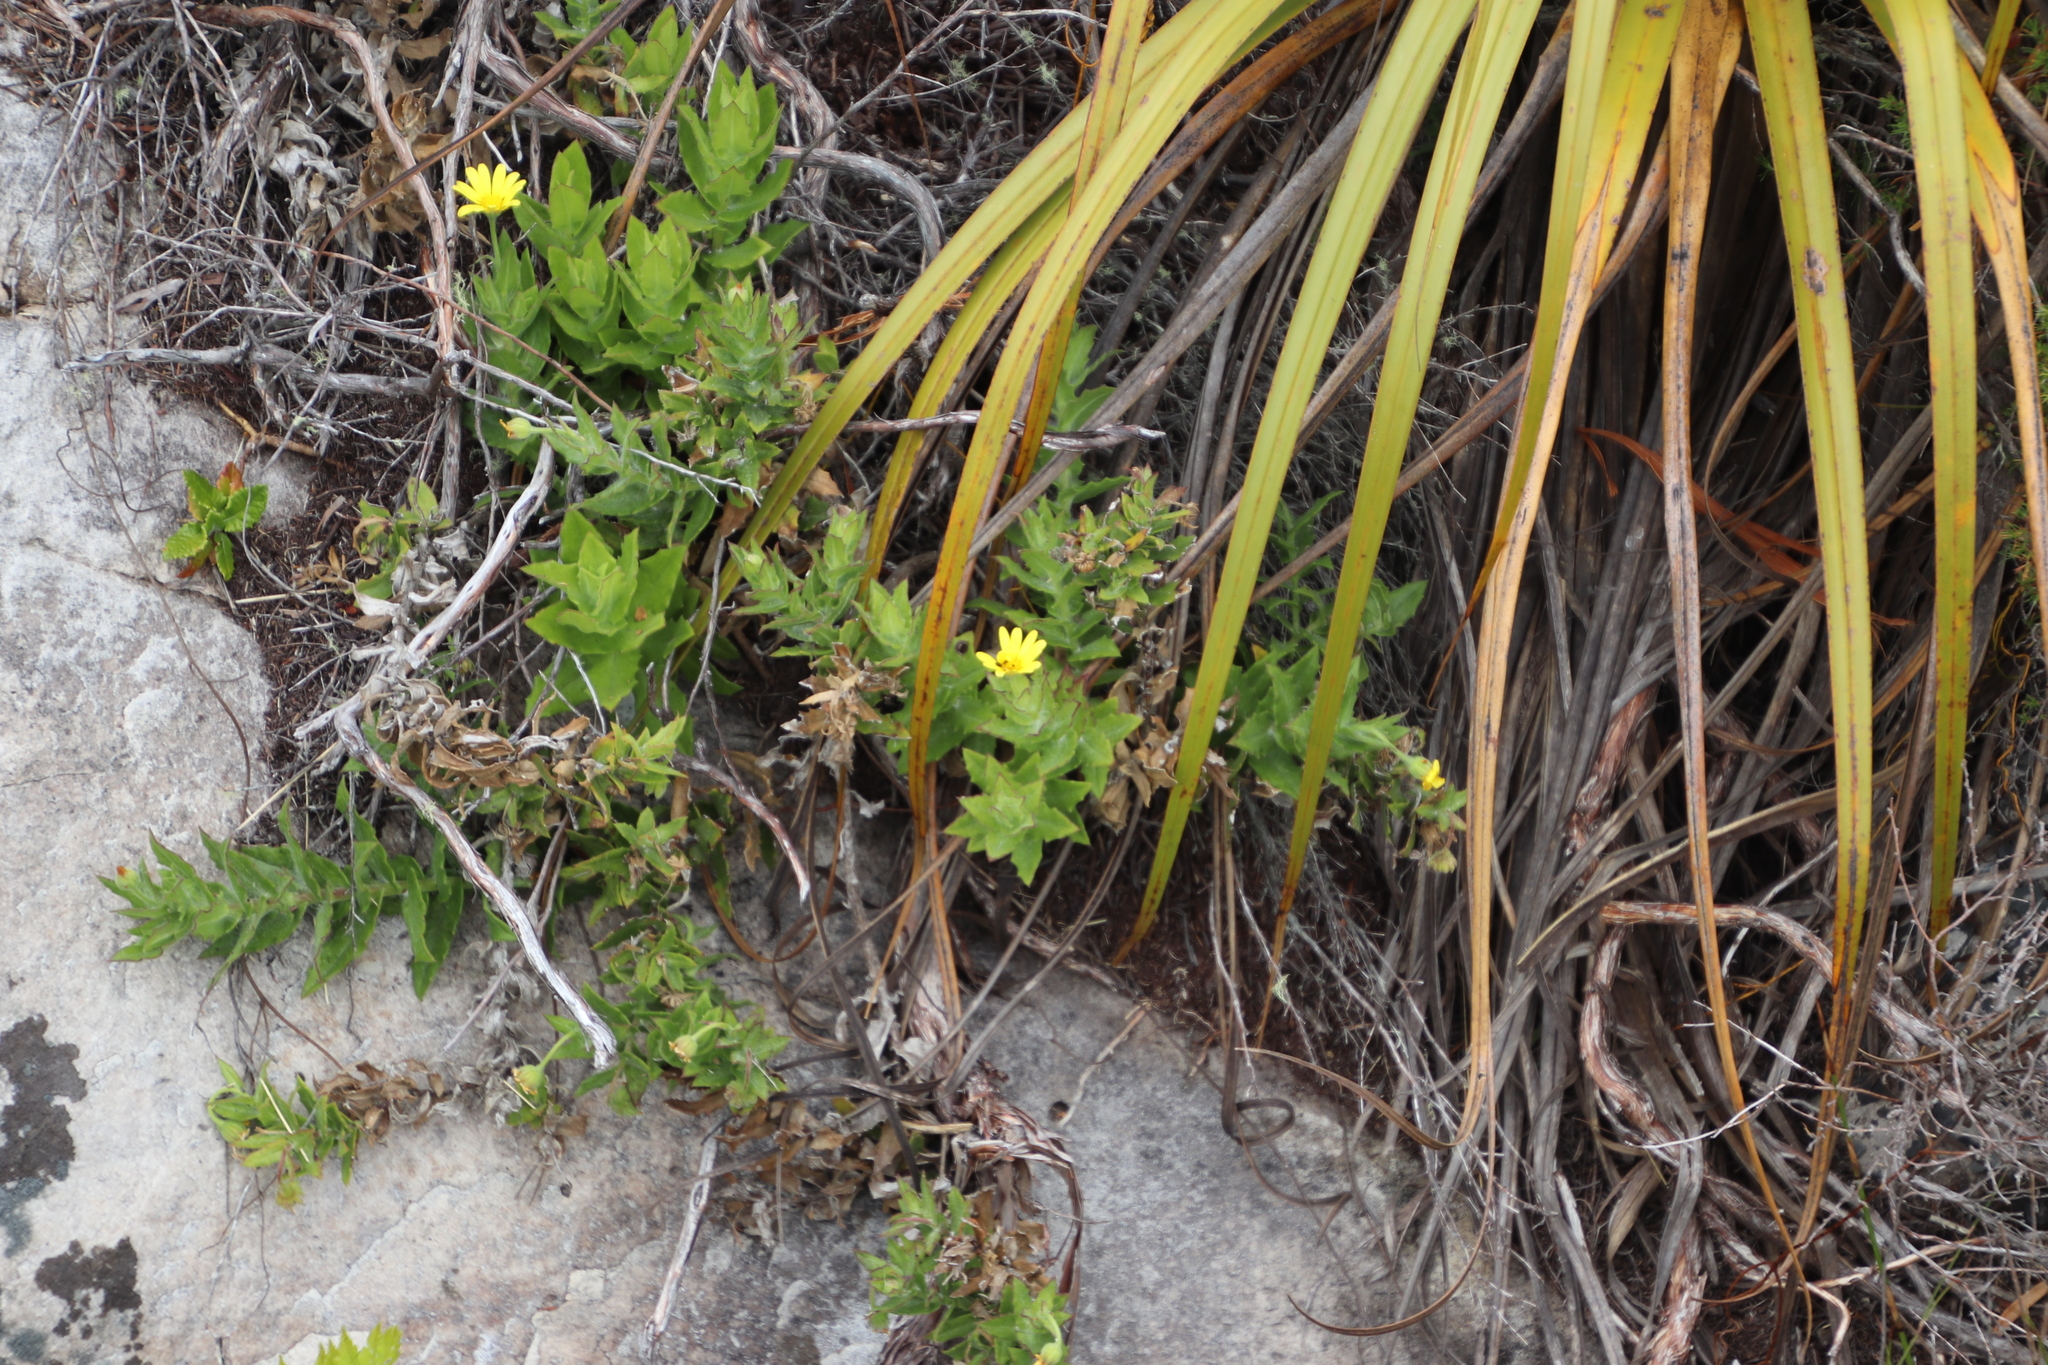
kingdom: Plantae
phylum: Tracheophyta
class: Magnoliopsida
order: Asterales
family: Asteraceae
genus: Osteospermum
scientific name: Osteospermum ilicifolium
